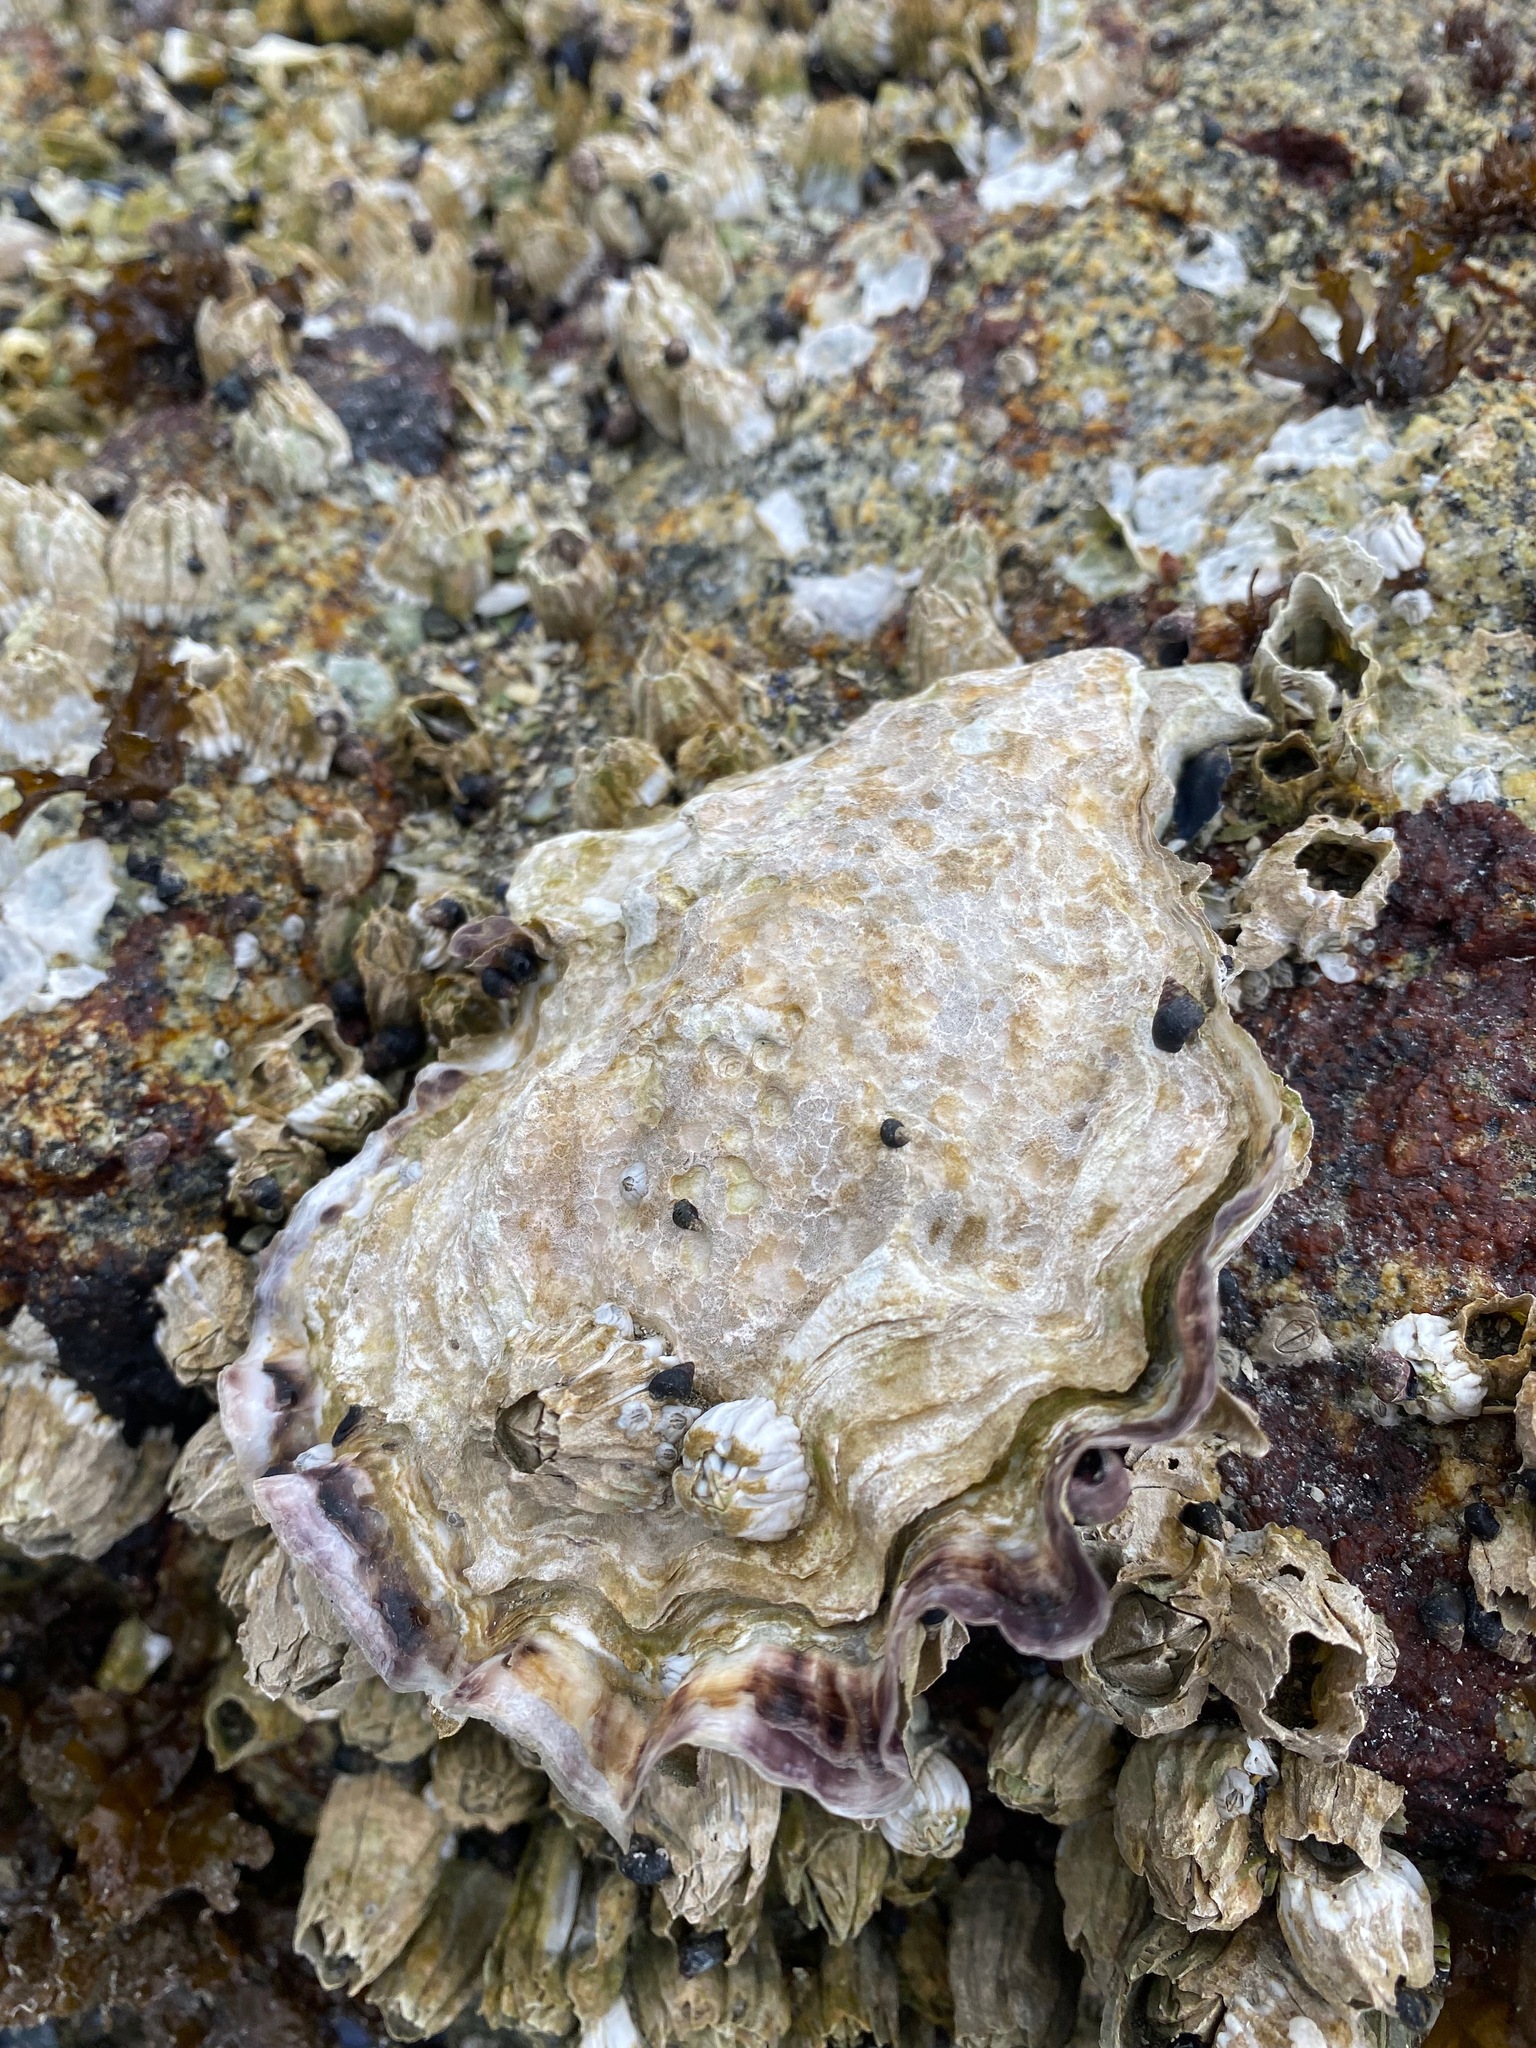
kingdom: Animalia
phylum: Mollusca
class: Bivalvia
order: Ostreida
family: Ostreidae
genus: Magallana
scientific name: Magallana gigas
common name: Pacific oyster
